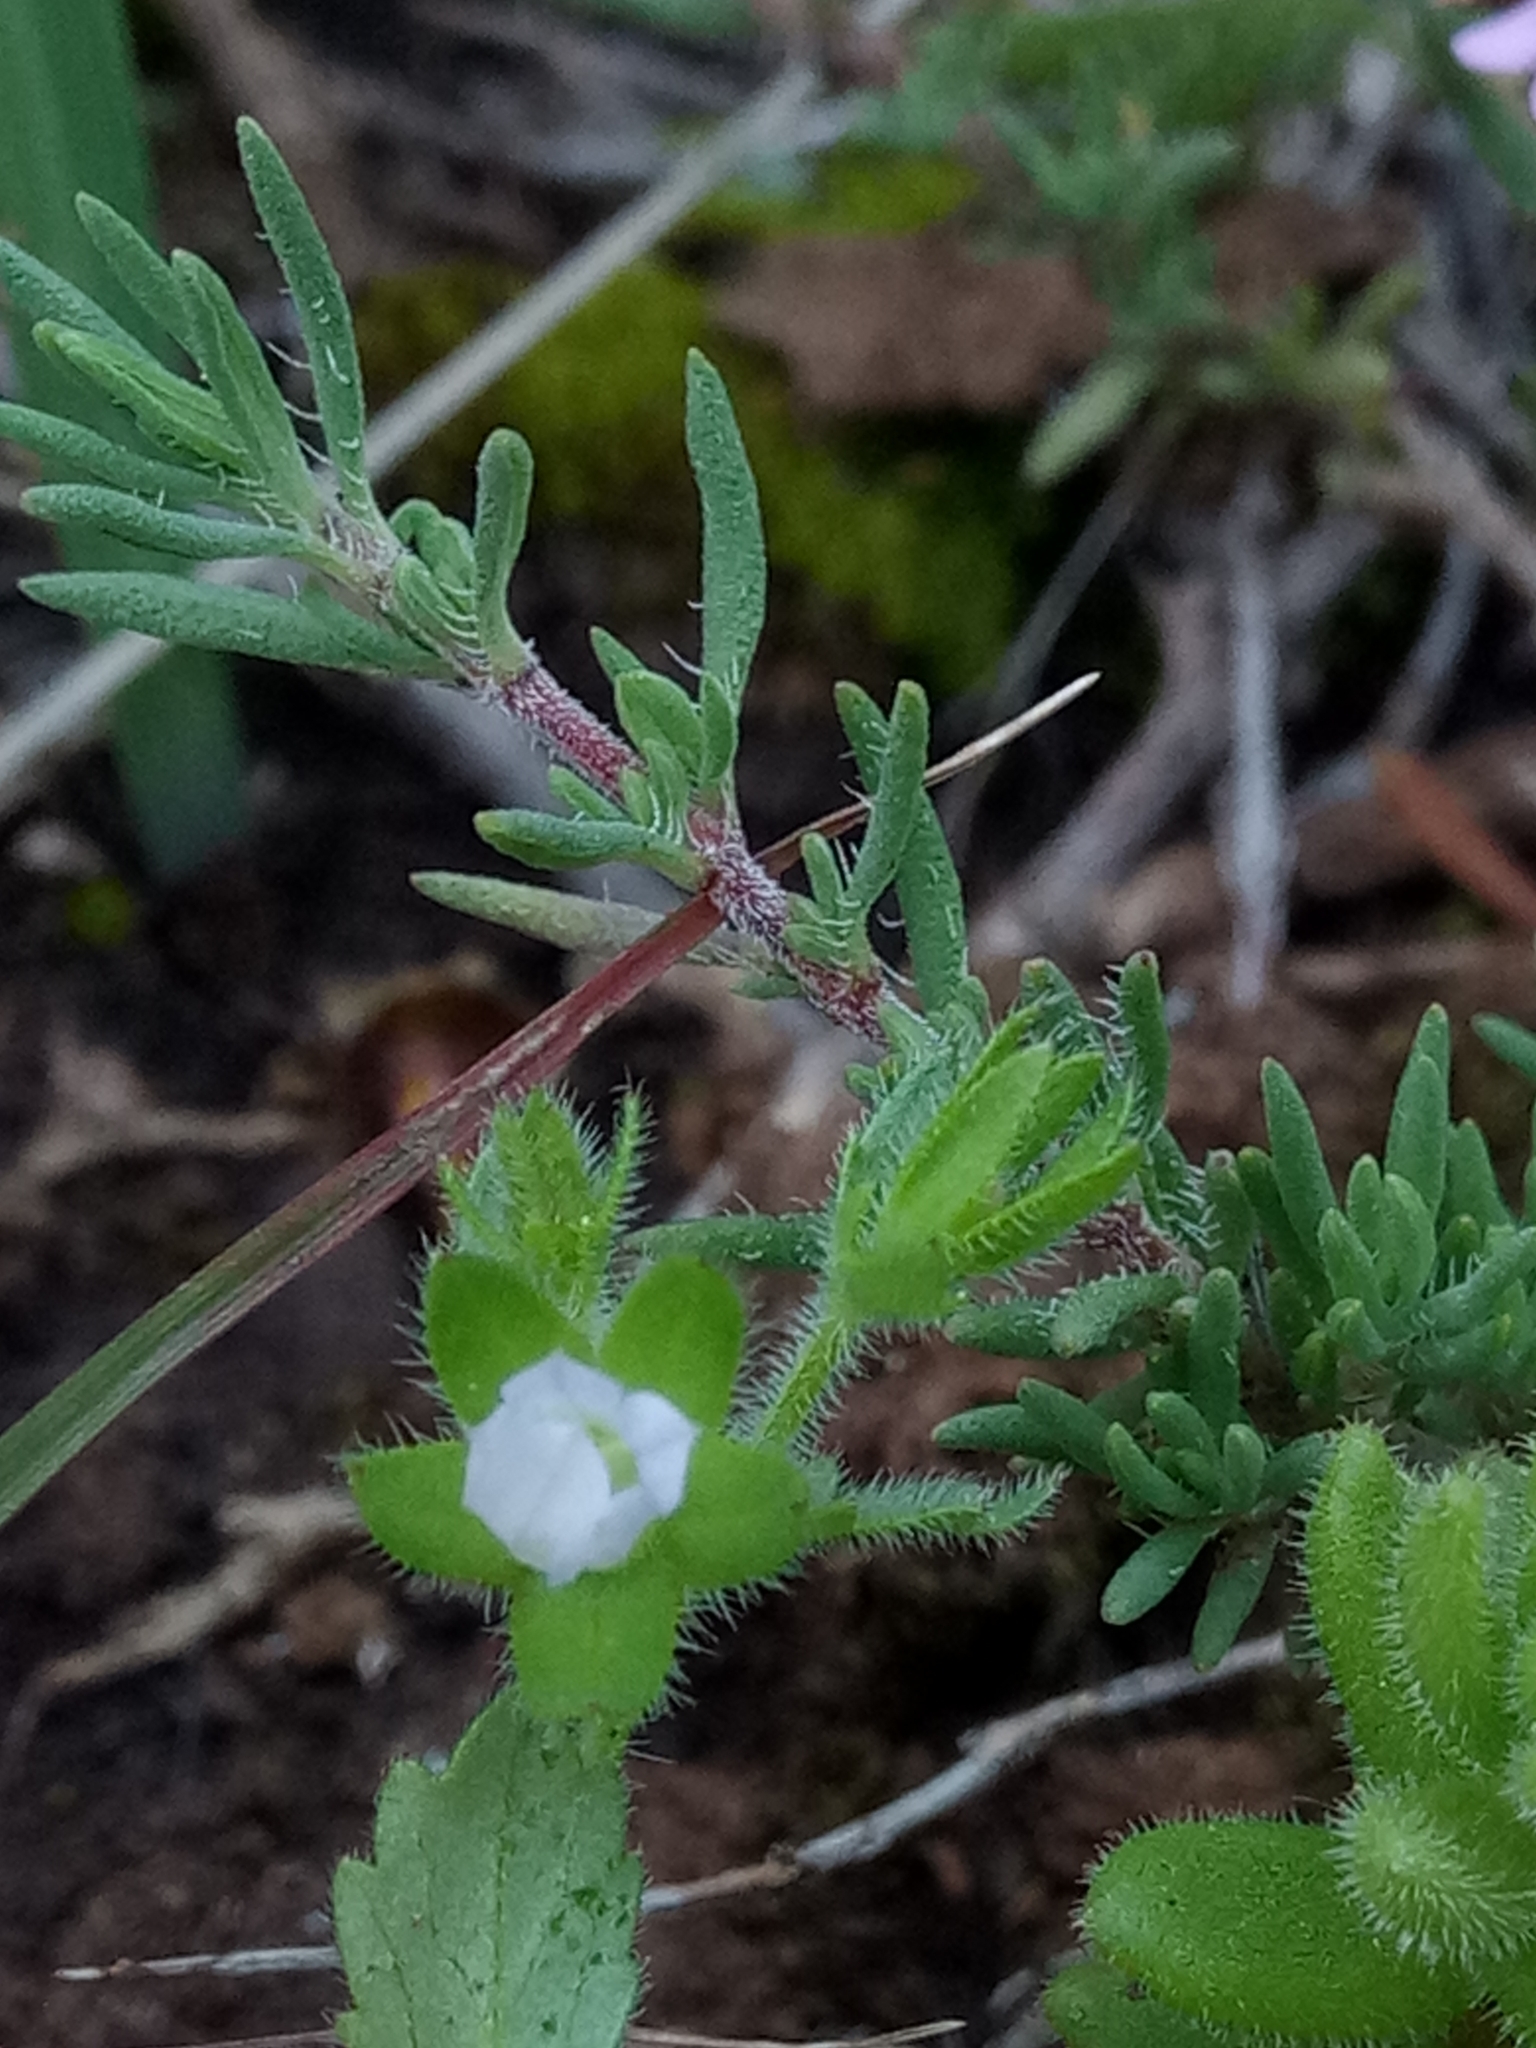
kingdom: Plantae
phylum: Tracheophyta
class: Magnoliopsida
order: Asterales
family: Campanulaceae
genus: Campanula
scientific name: Campanula erinus
